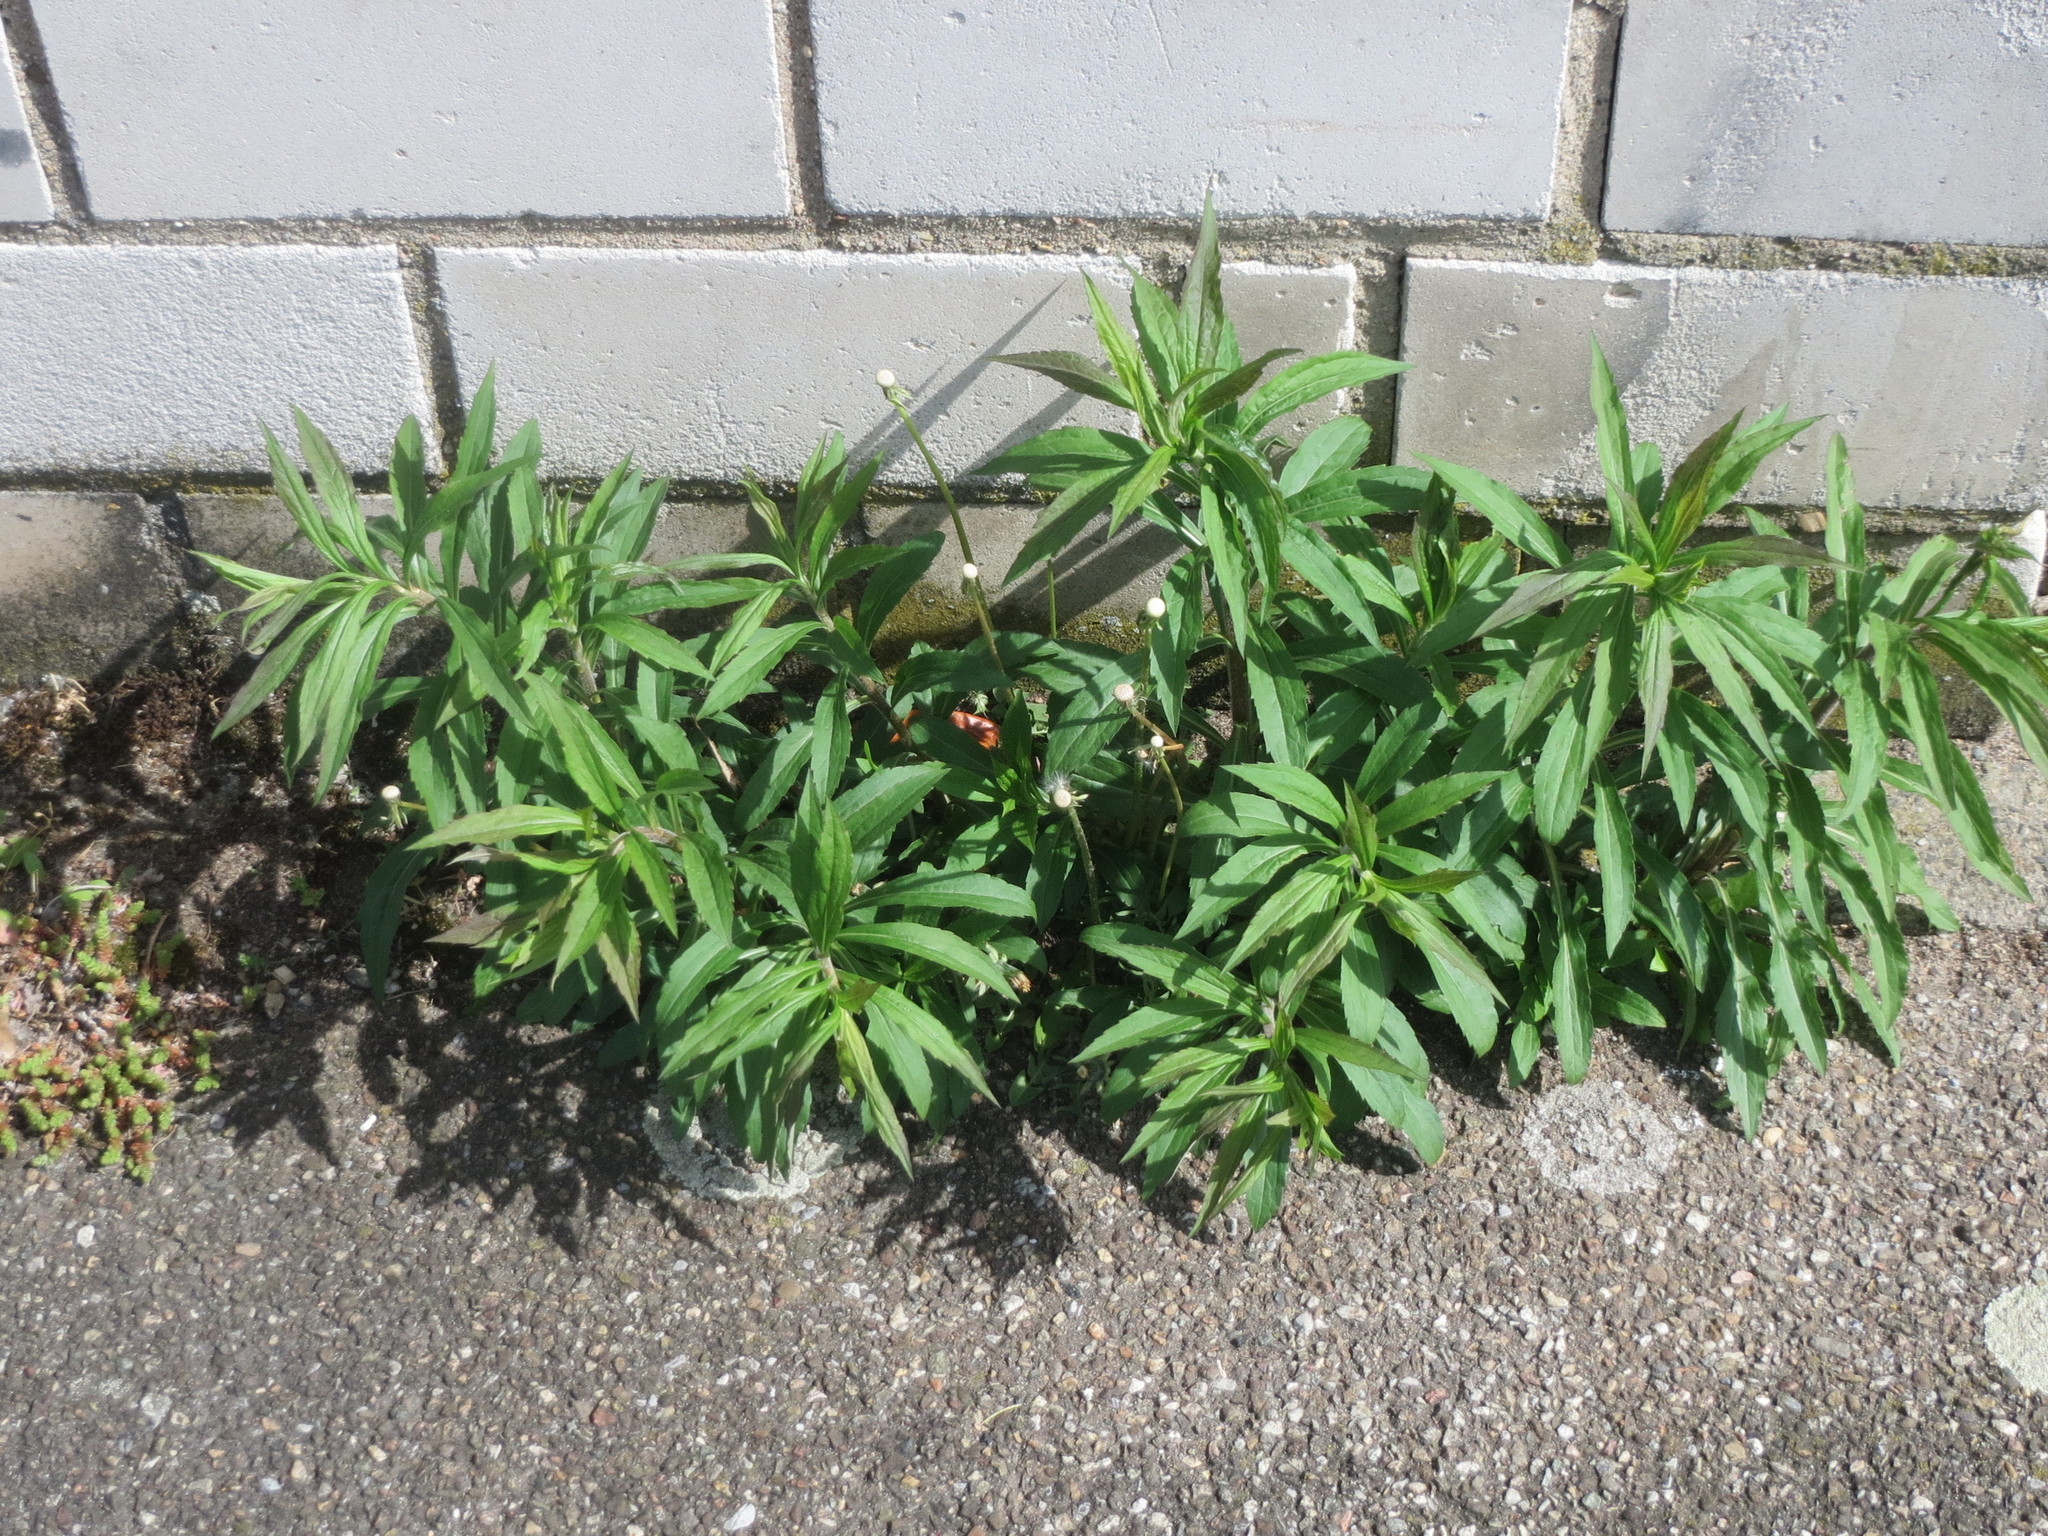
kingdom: Plantae
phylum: Tracheophyta
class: Magnoliopsida
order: Asterales
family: Asteraceae
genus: Solidago
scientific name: Solidago canadensis
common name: Canada goldenrod
